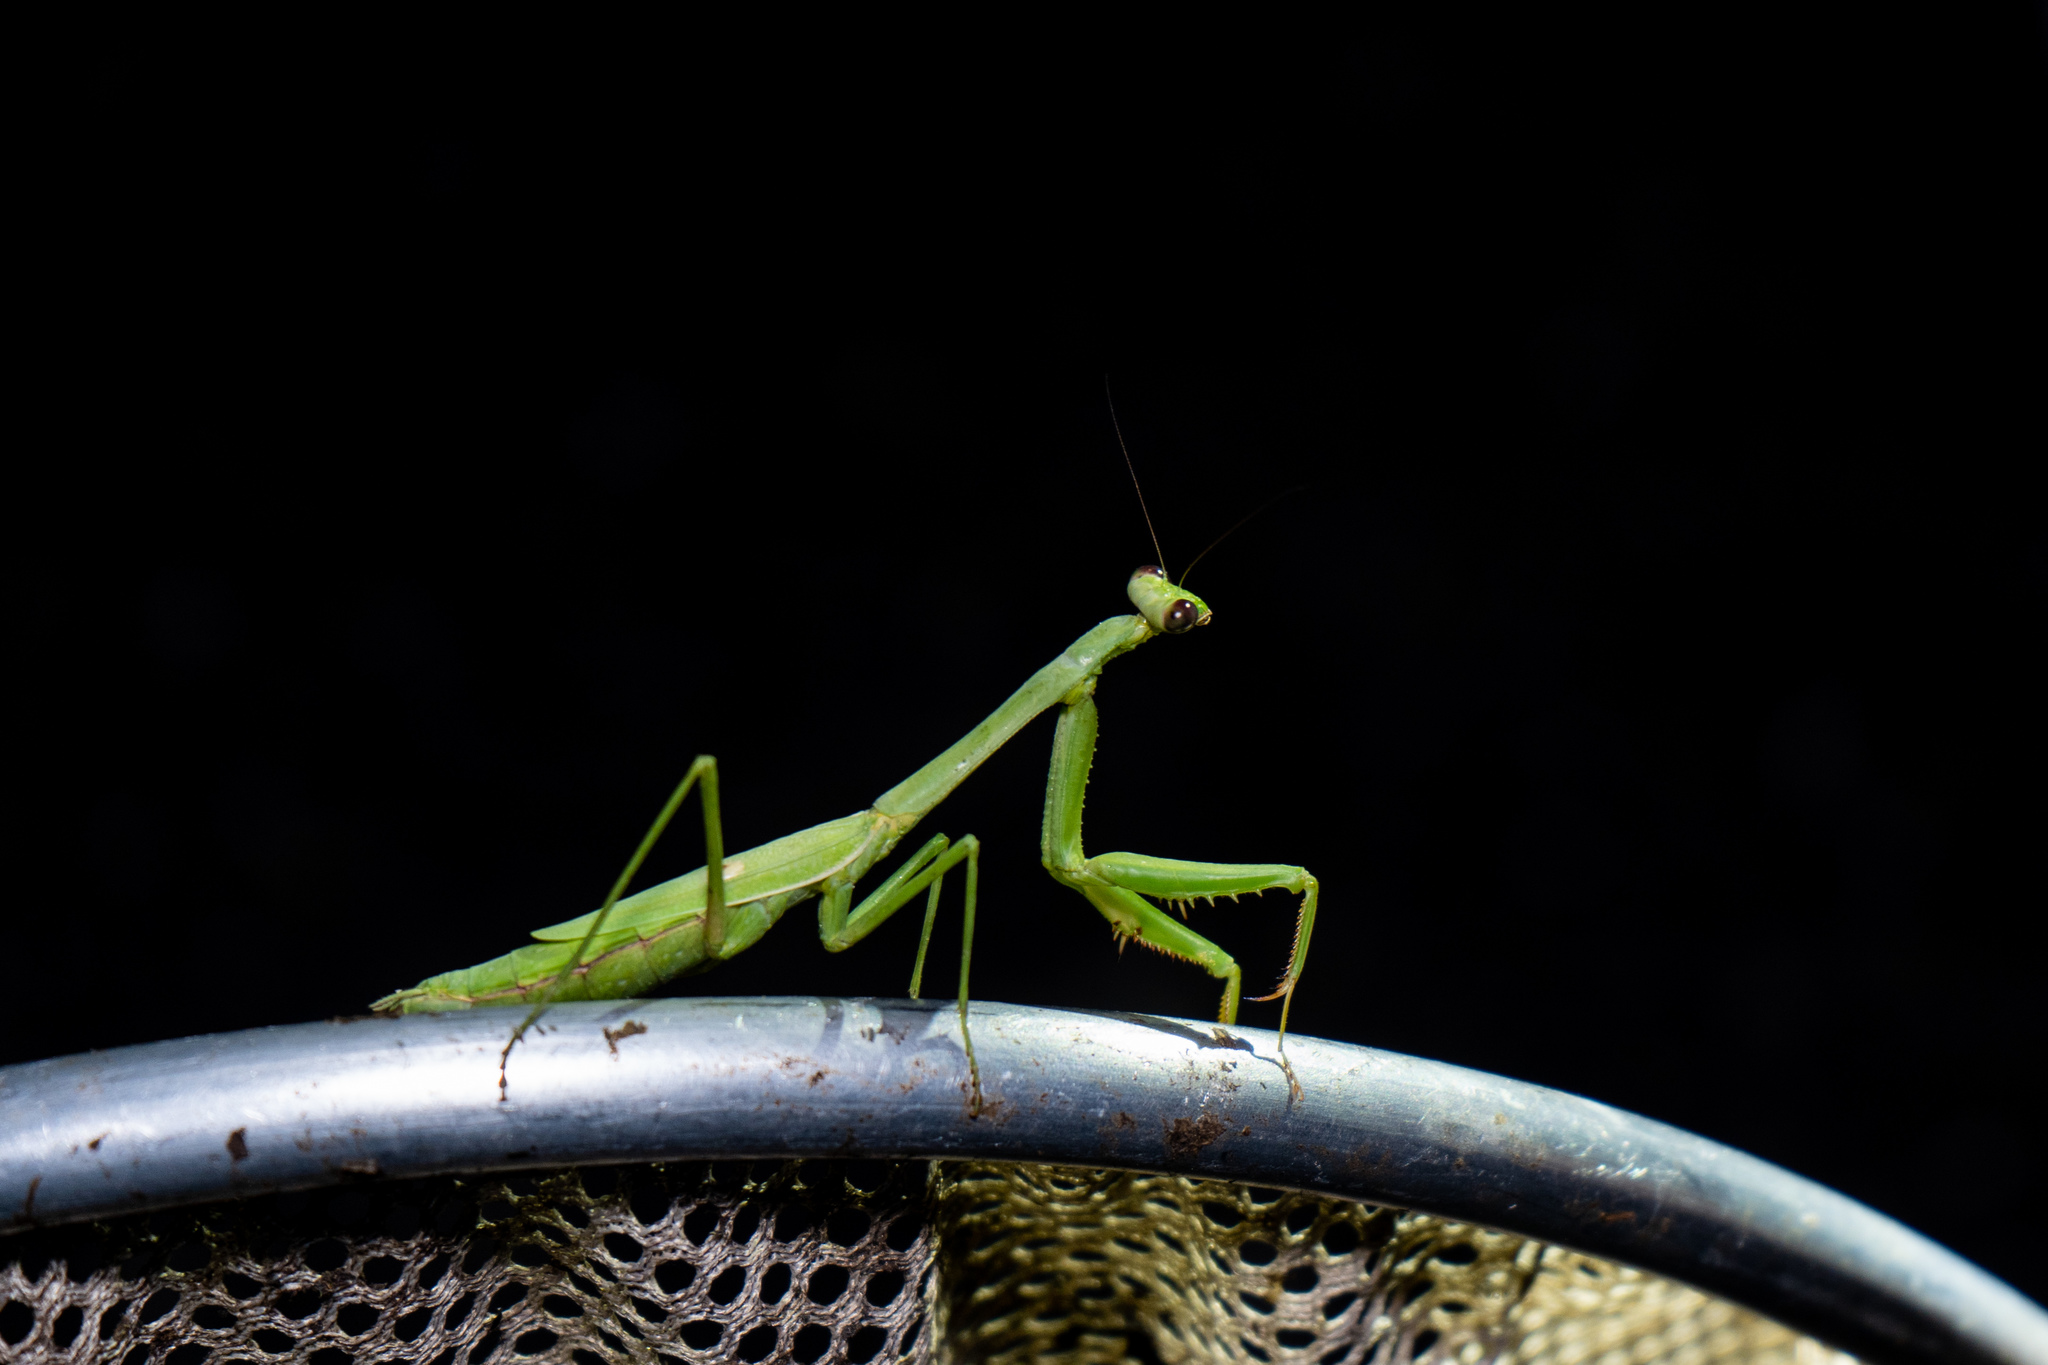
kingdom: Animalia
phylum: Arthropoda
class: Insecta
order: Mantodea
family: Mantidae
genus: Stagmomantis
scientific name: Stagmomantis carolina
